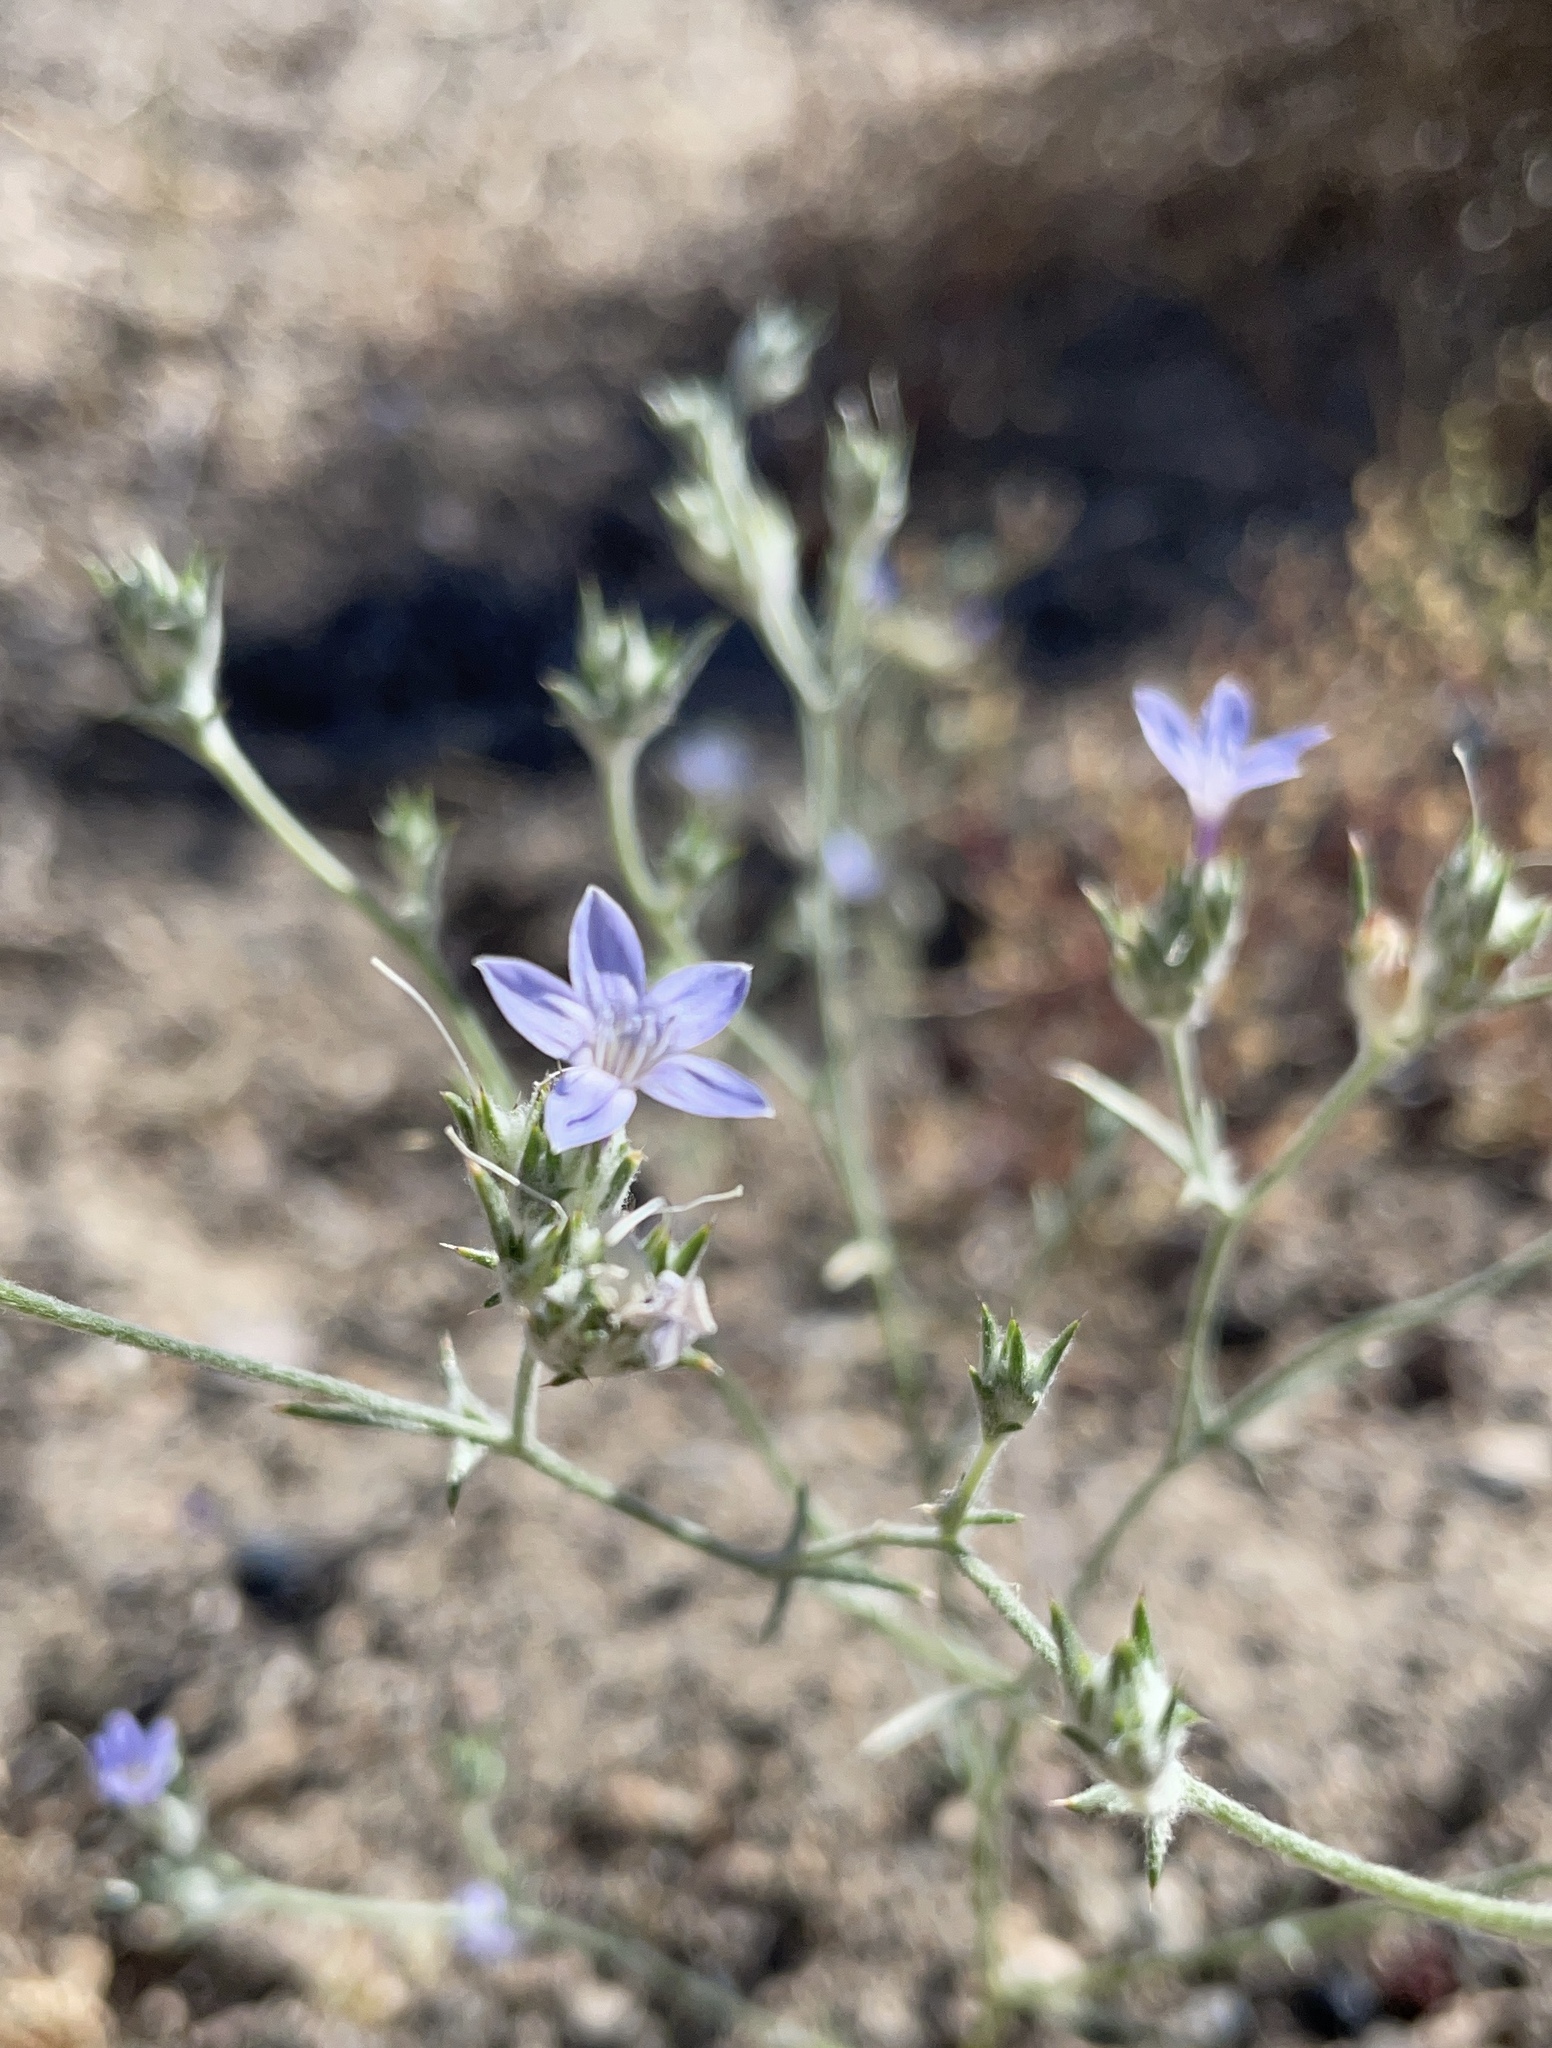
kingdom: Plantae
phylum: Tracheophyta
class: Magnoliopsida
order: Ericales
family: Polemoniaceae
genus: Eriastrum
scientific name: Eriastrum wilcoxii
